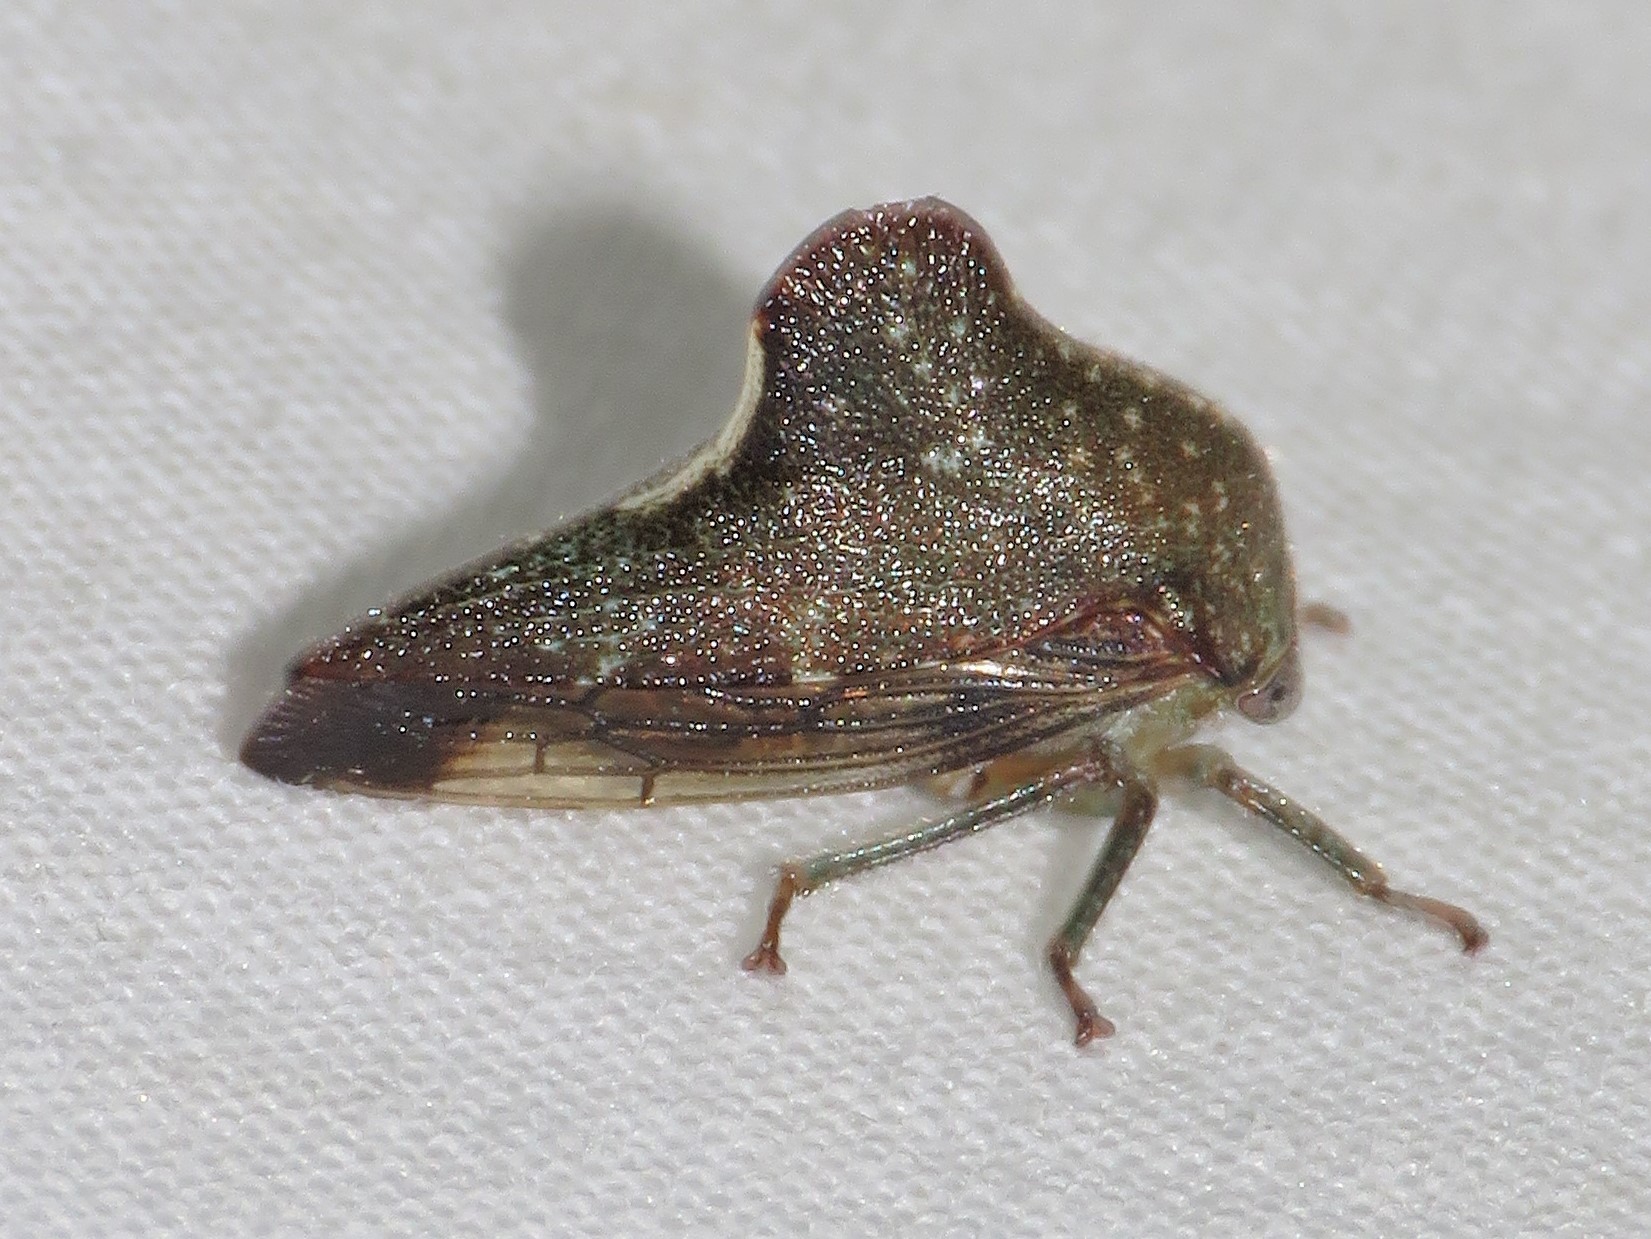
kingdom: Animalia
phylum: Arthropoda
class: Insecta
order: Hemiptera
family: Membracidae
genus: Telamona
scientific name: Telamona monticola
